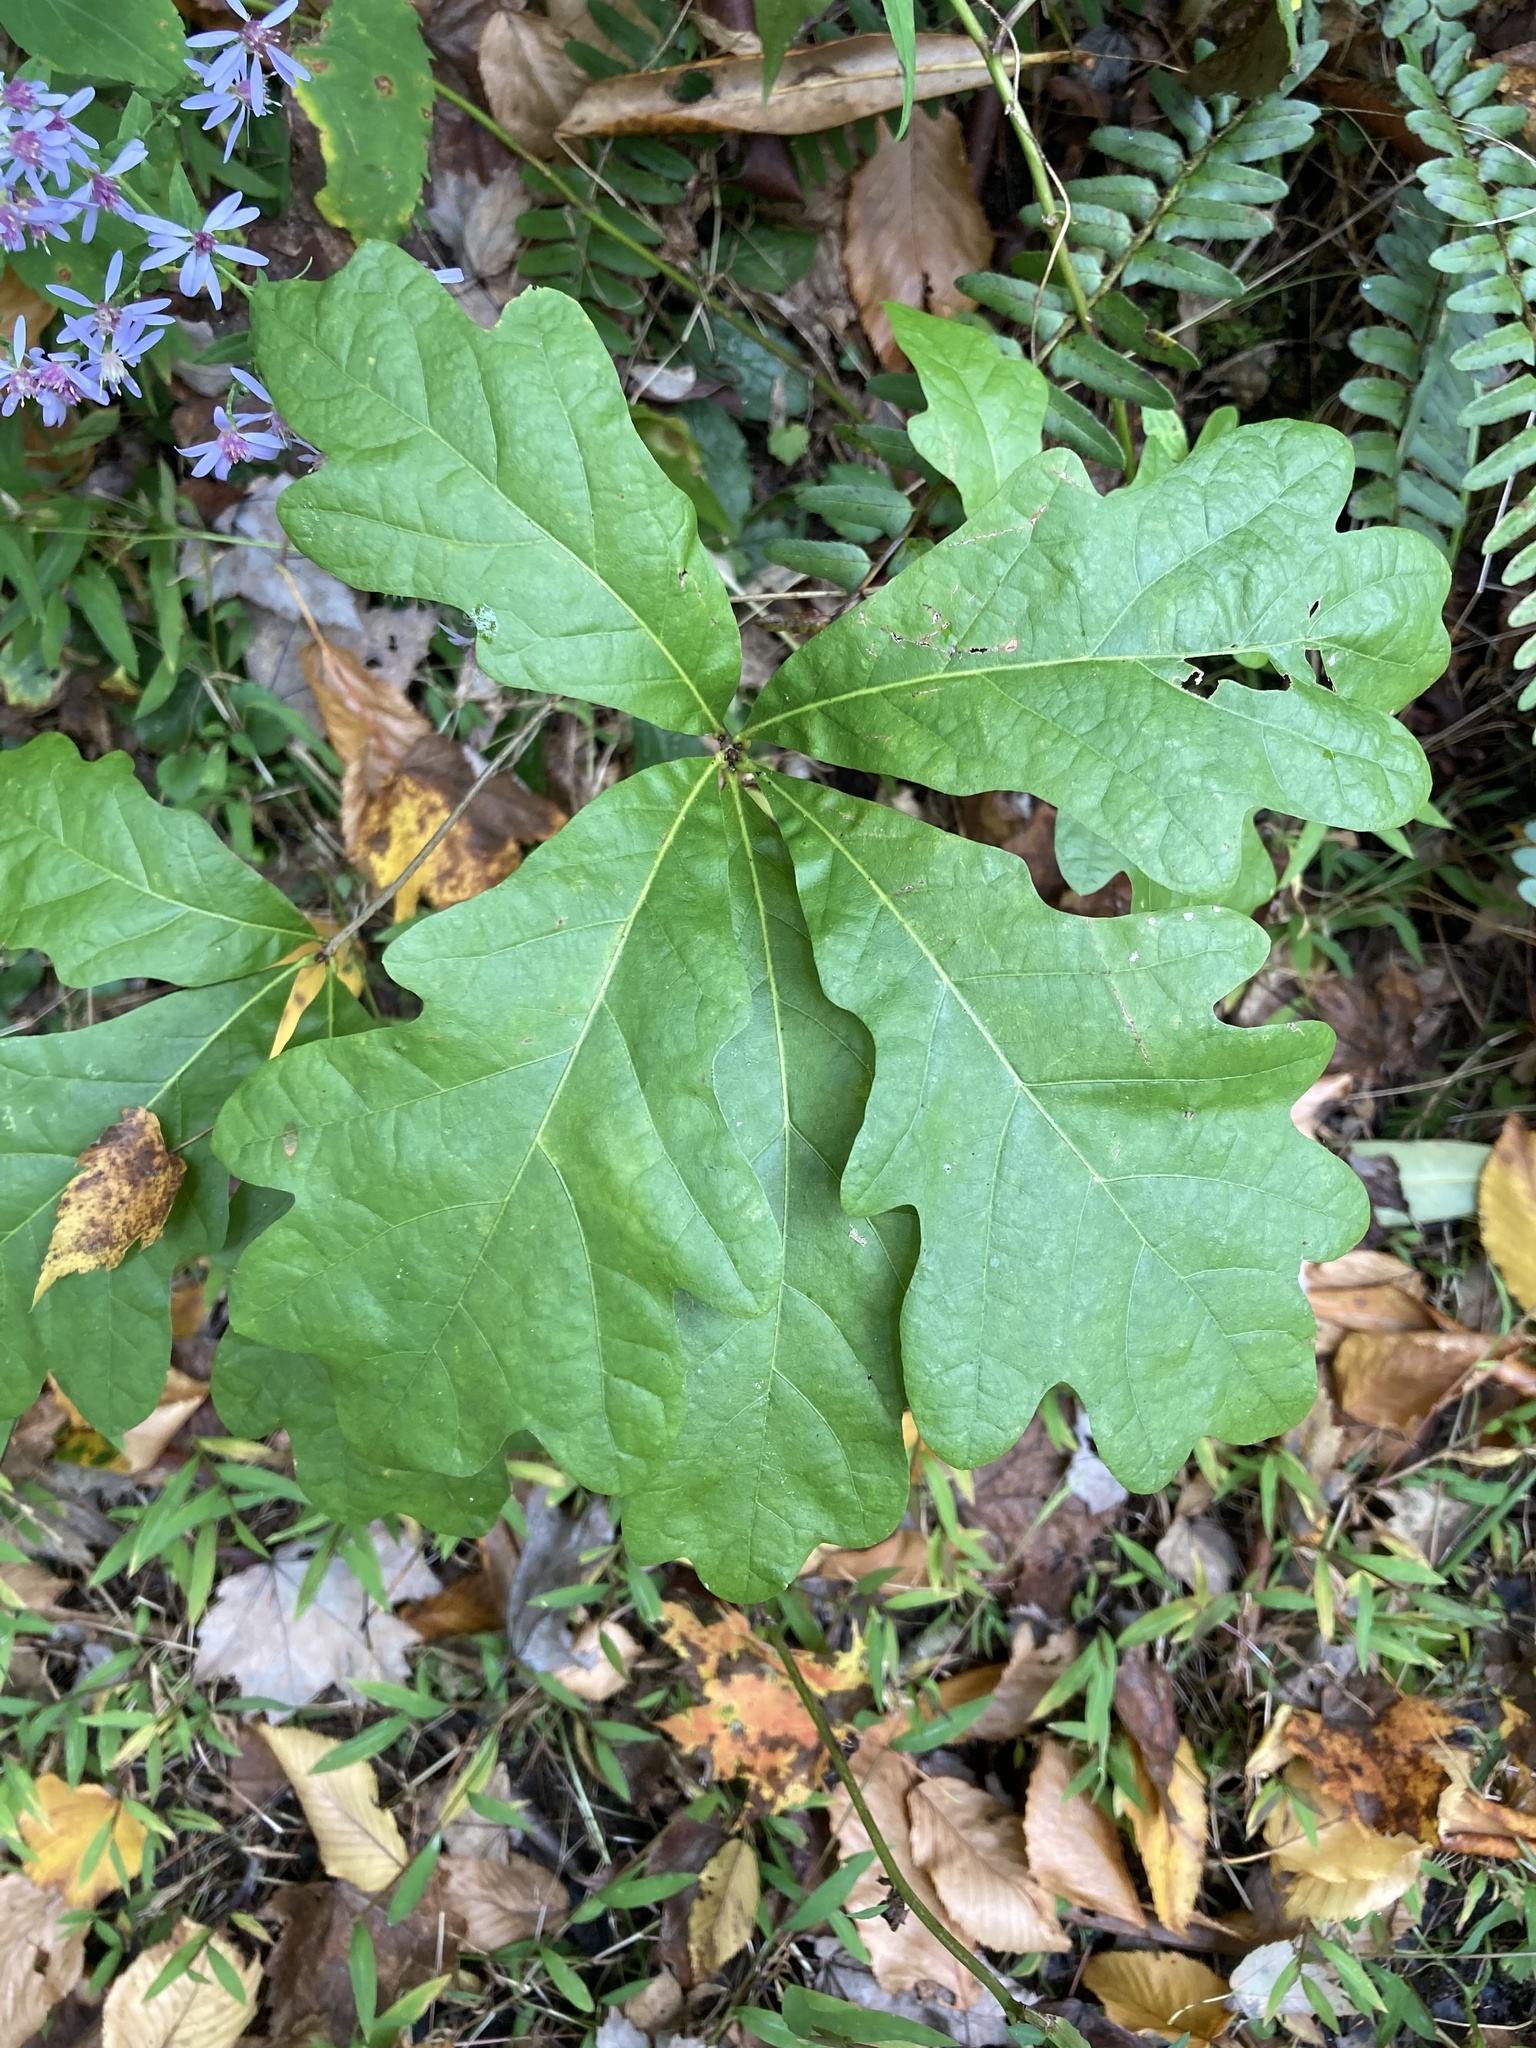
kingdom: Plantae
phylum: Tracheophyta
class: Magnoliopsida
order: Fagales
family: Fagaceae
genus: Quercus
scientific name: Quercus alba
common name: White oak
